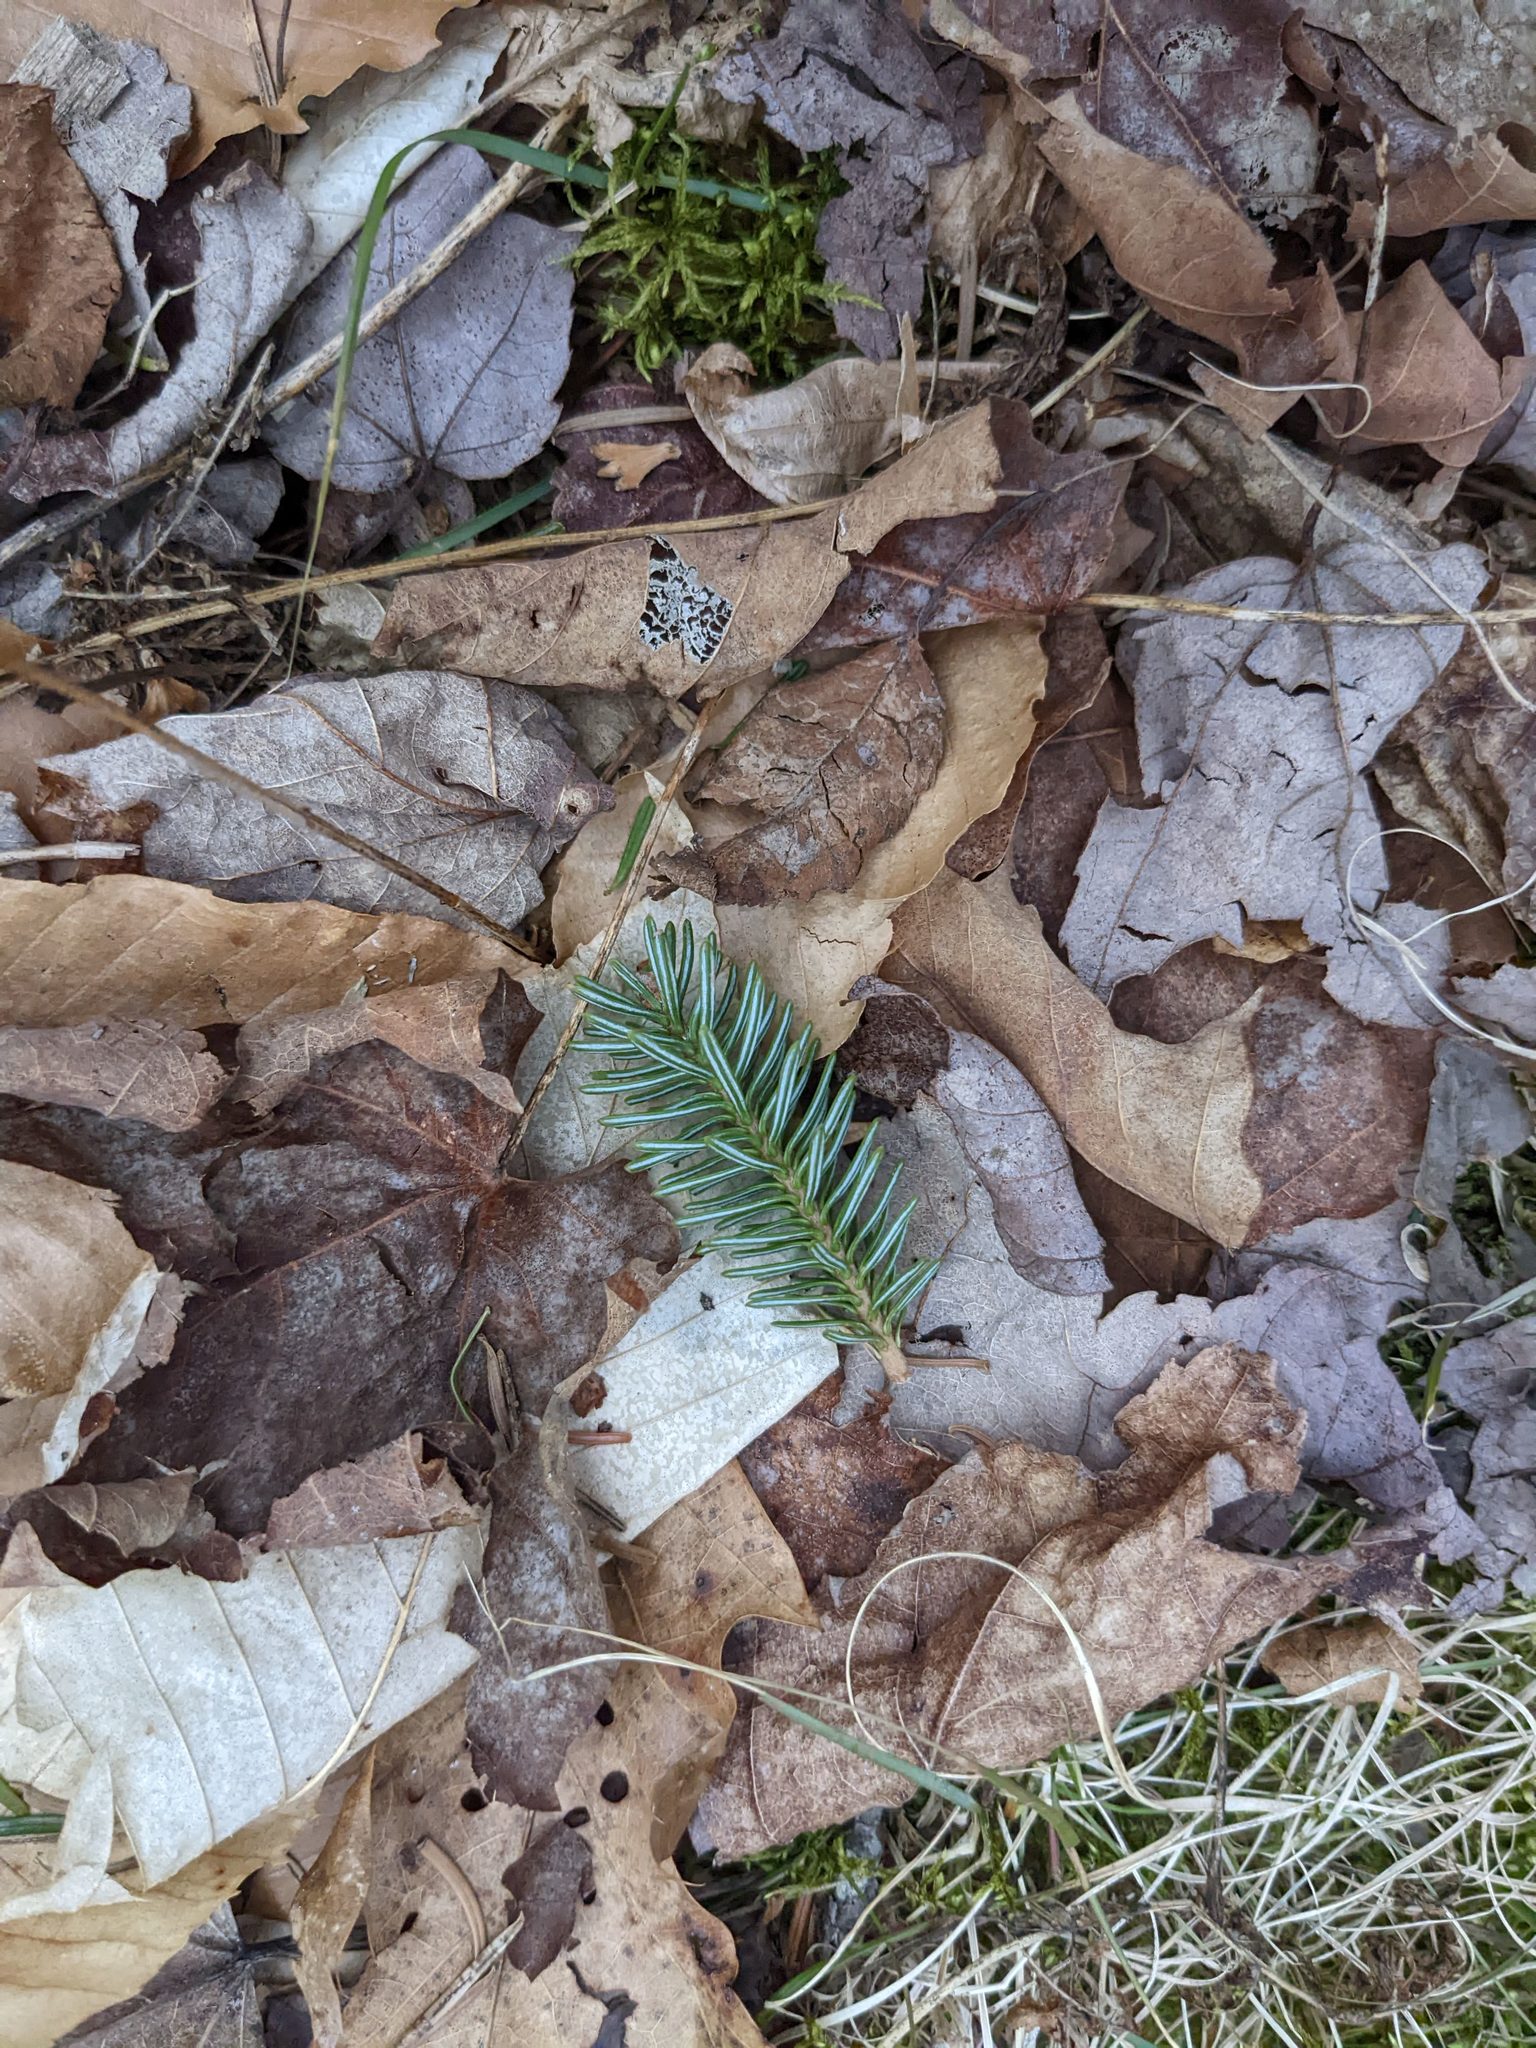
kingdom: Plantae
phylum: Tracheophyta
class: Pinopsida
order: Pinales
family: Pinaceae
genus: Abies
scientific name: Abies balsamea
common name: Balsam fir
